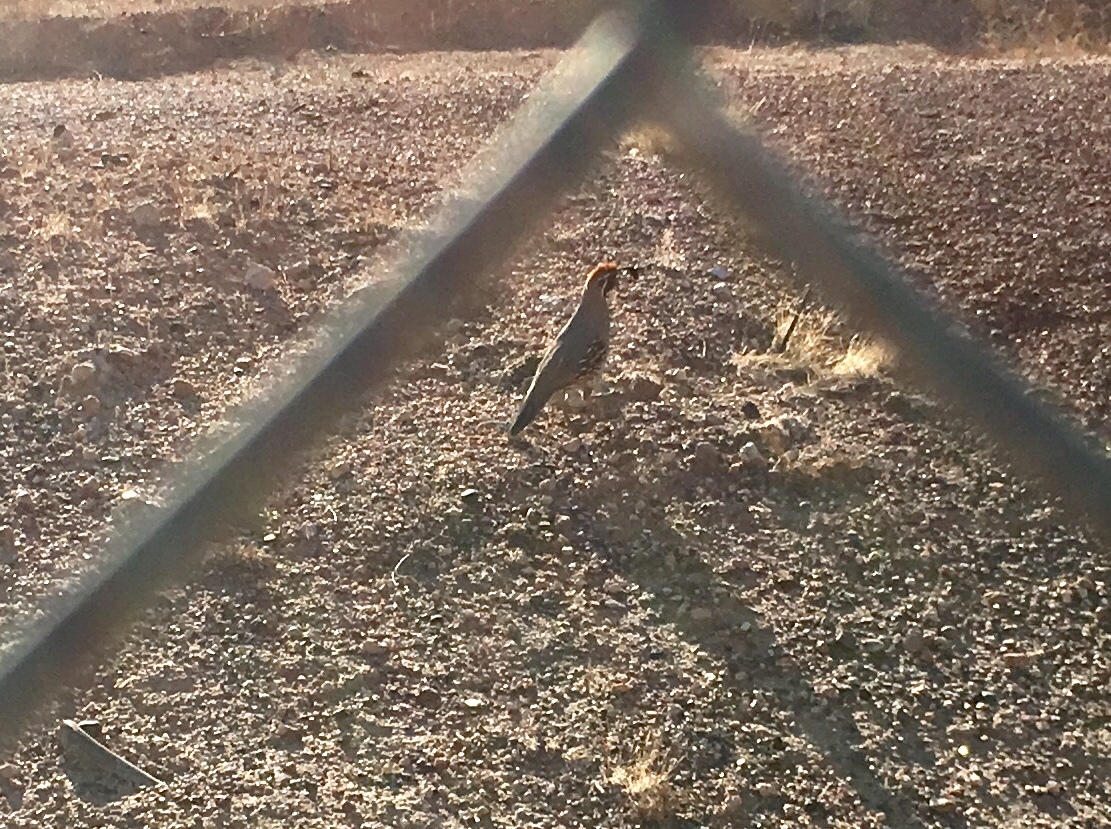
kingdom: Animalia
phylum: Chordata
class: Aves
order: Galliformes
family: Odontophoridae
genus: Callipepla
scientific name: Callipepla gambelii
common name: Gambel's quail
